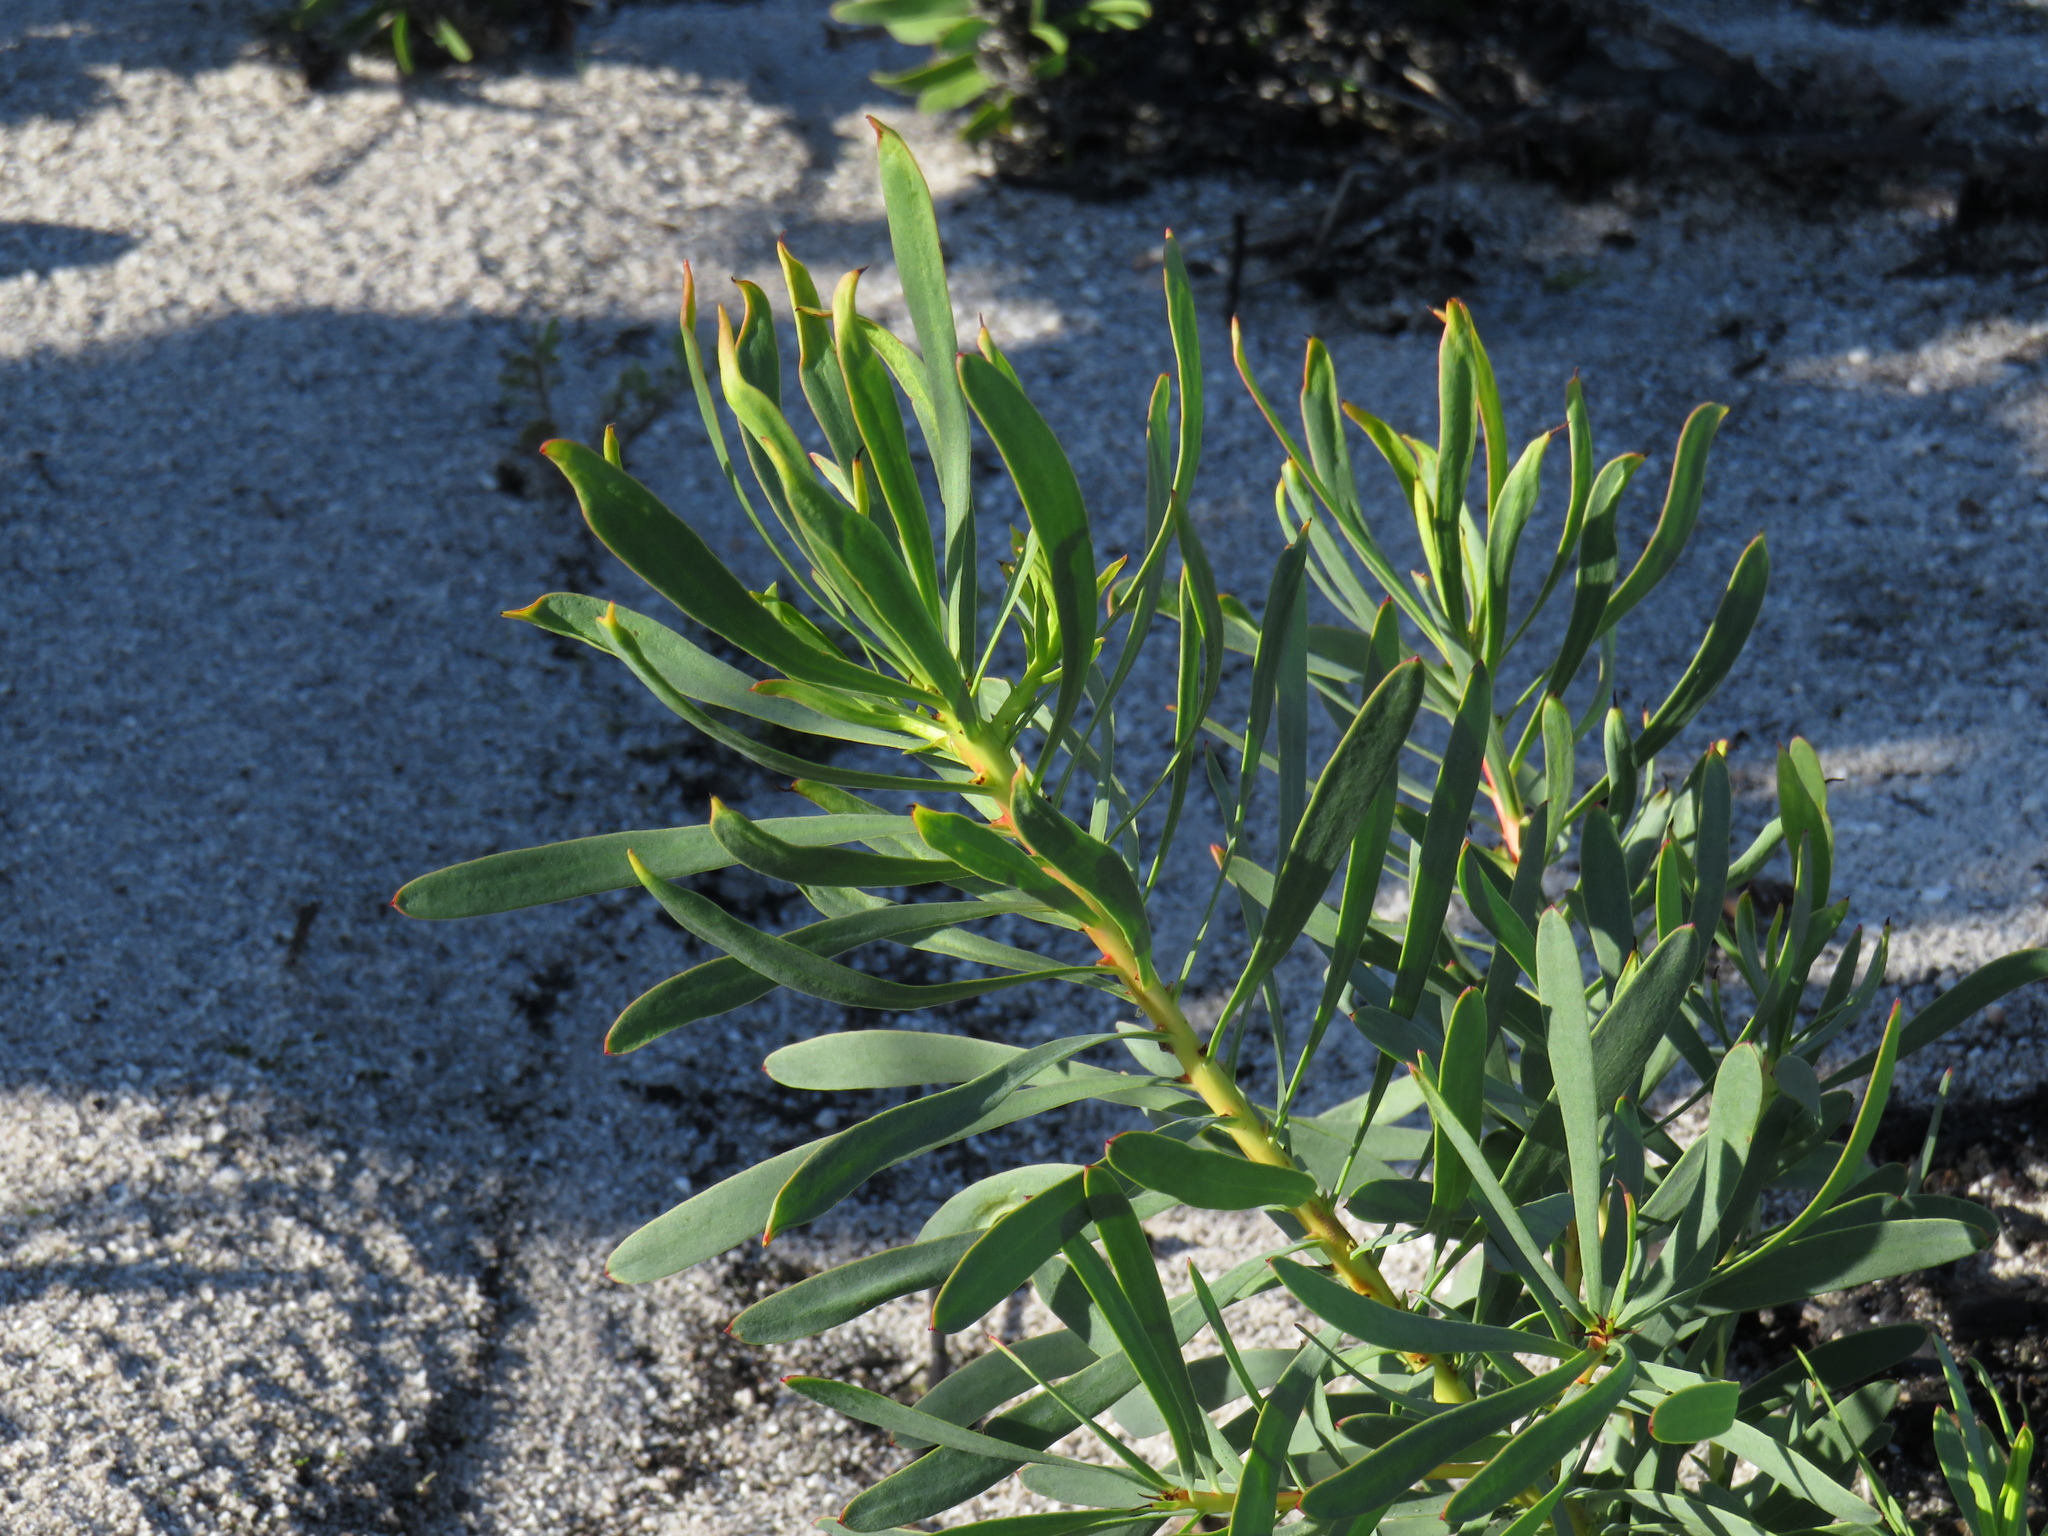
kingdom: Plantae
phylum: Tracheophyta
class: Magnoliopsida
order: Proteales
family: Proteaceae
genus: Protea
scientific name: Protea repens
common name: Sugarbush
